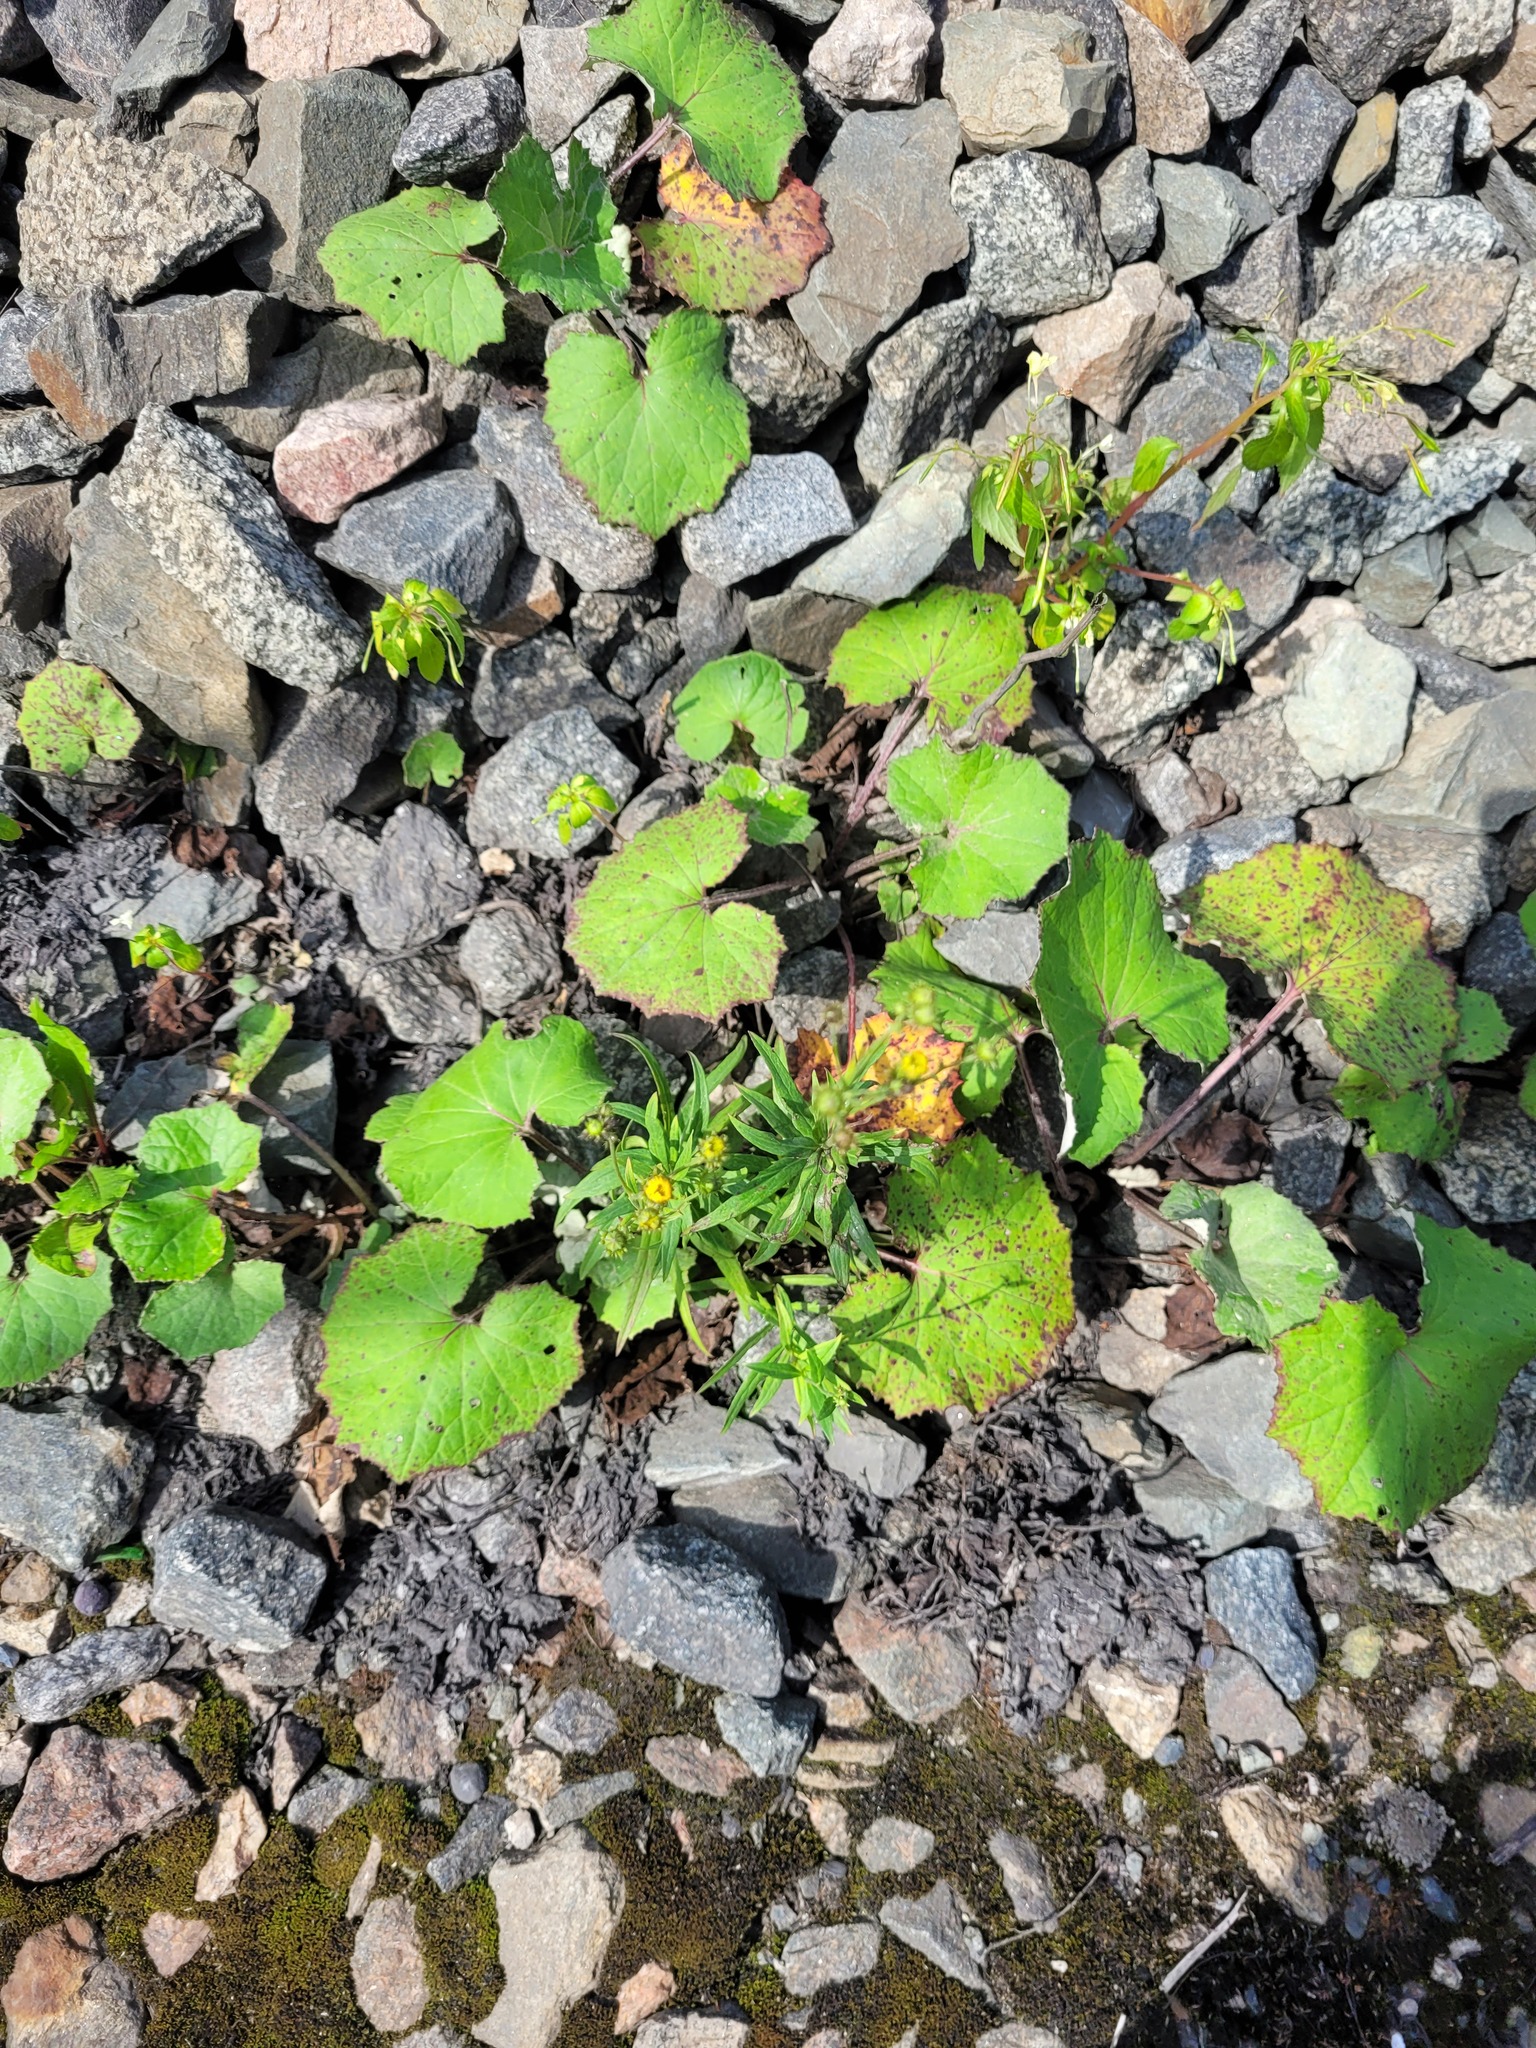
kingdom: Plantae
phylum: Tracheophyta
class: Magnoliopsida
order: Asterales
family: Asteraceae
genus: Hieracium
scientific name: Hieracium umbellatum
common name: Northern hawkweed
